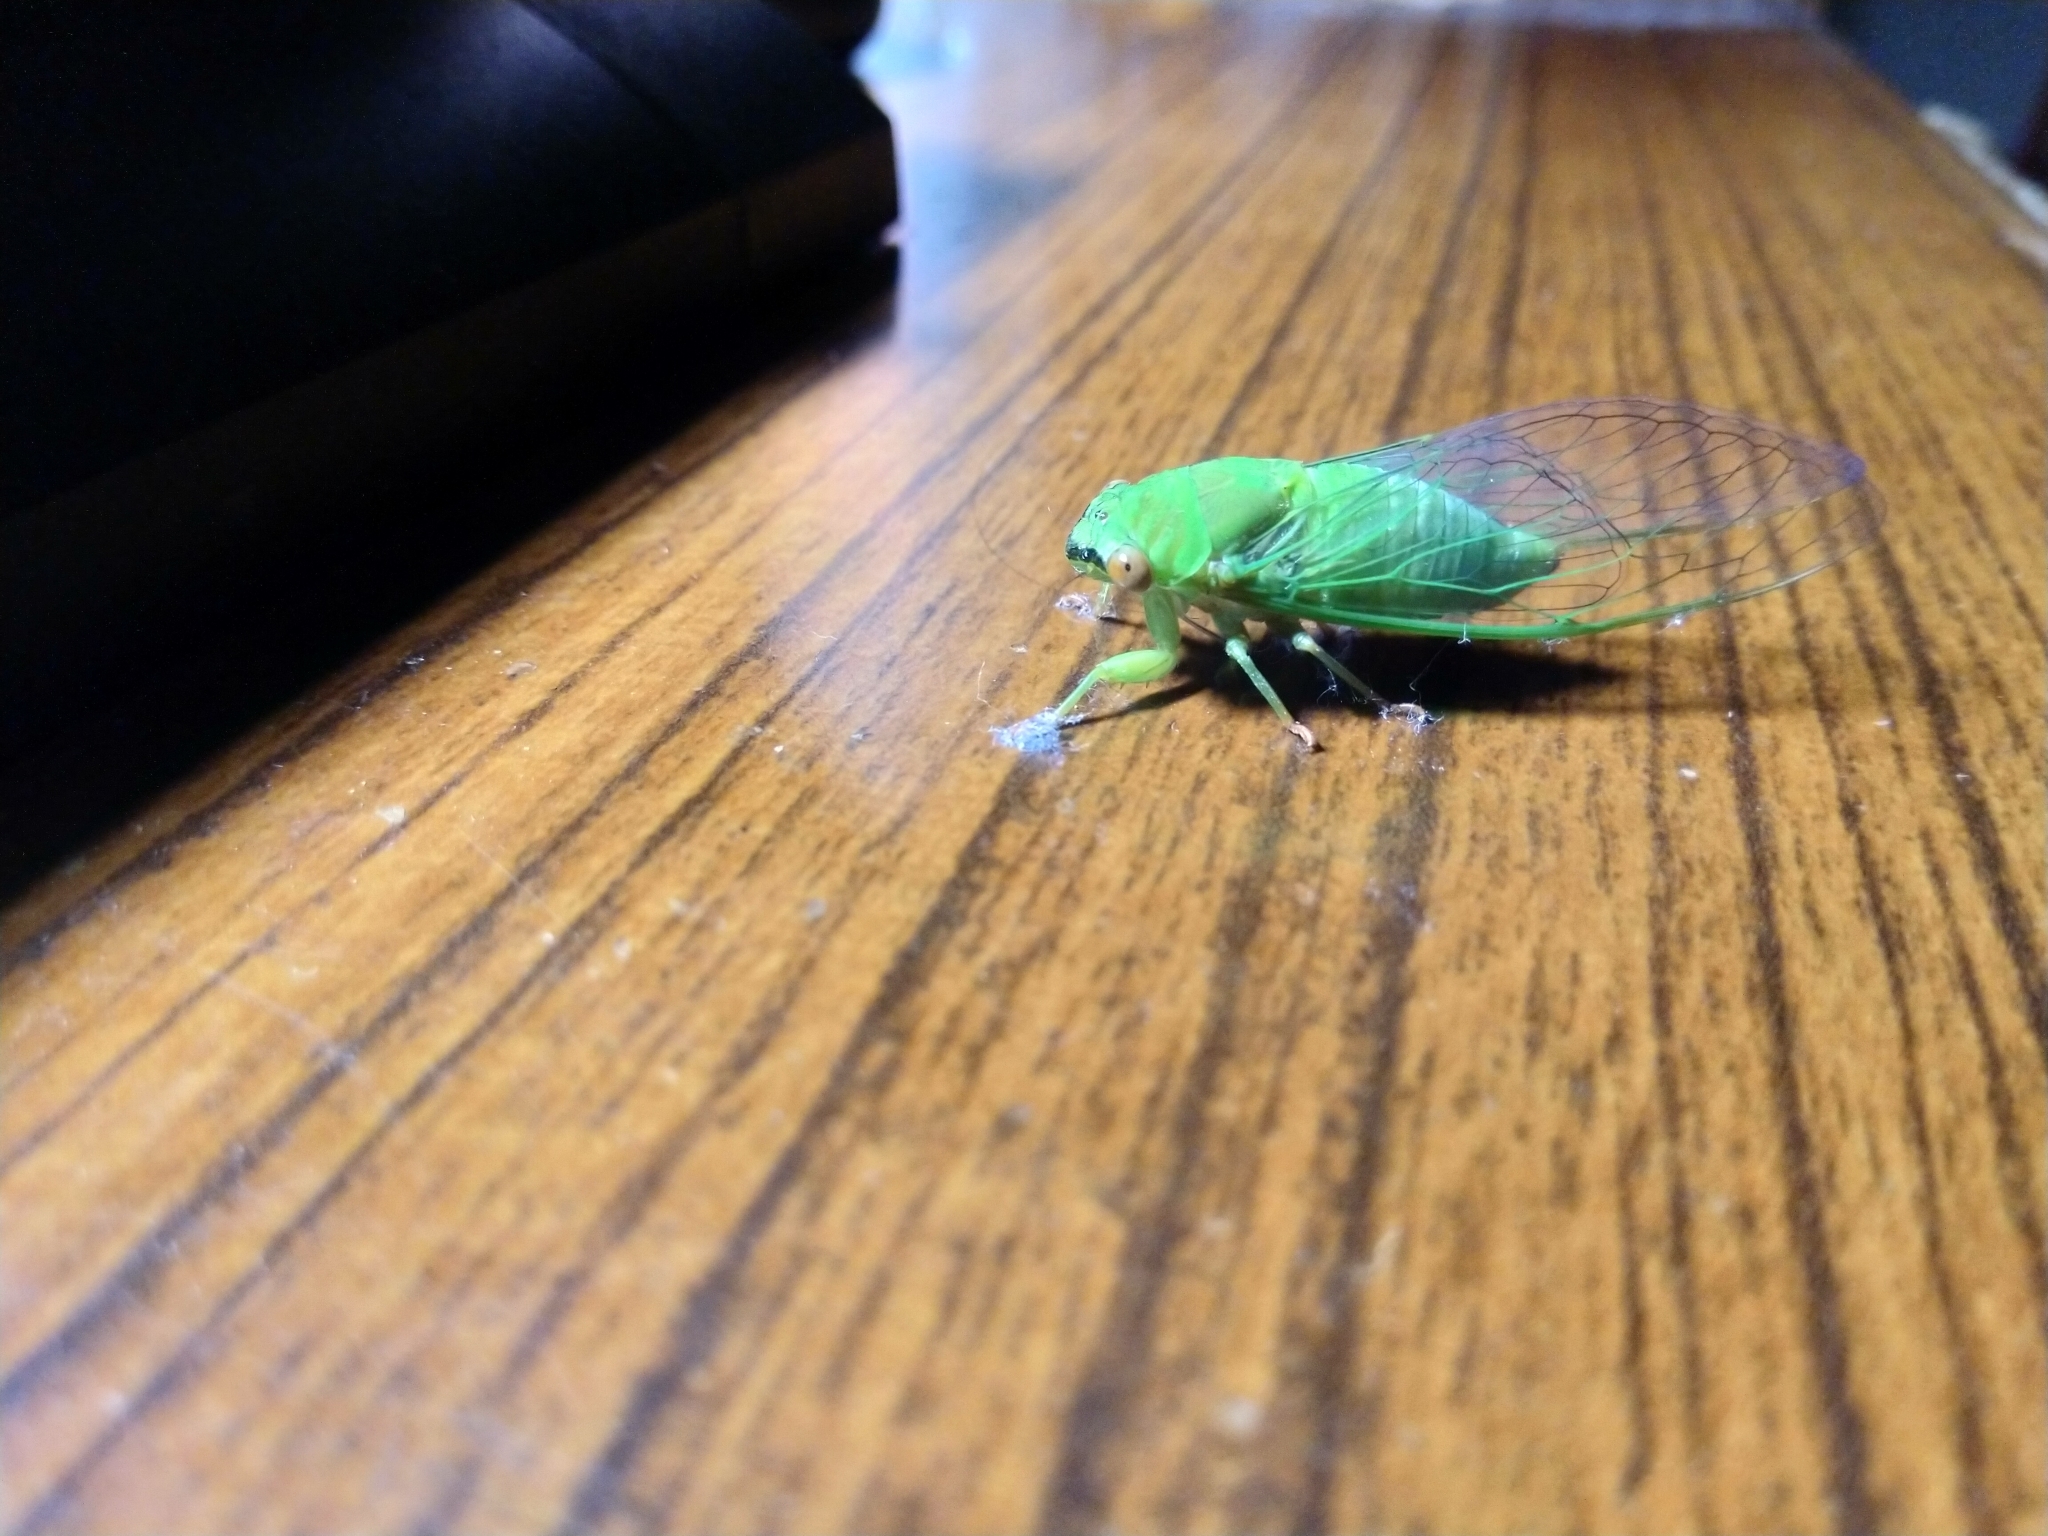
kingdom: Animalia
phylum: Arthropoda
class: Insecta
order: Hemiptera
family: Cicadidae
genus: Chremistica
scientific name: Chremistica ochracea
